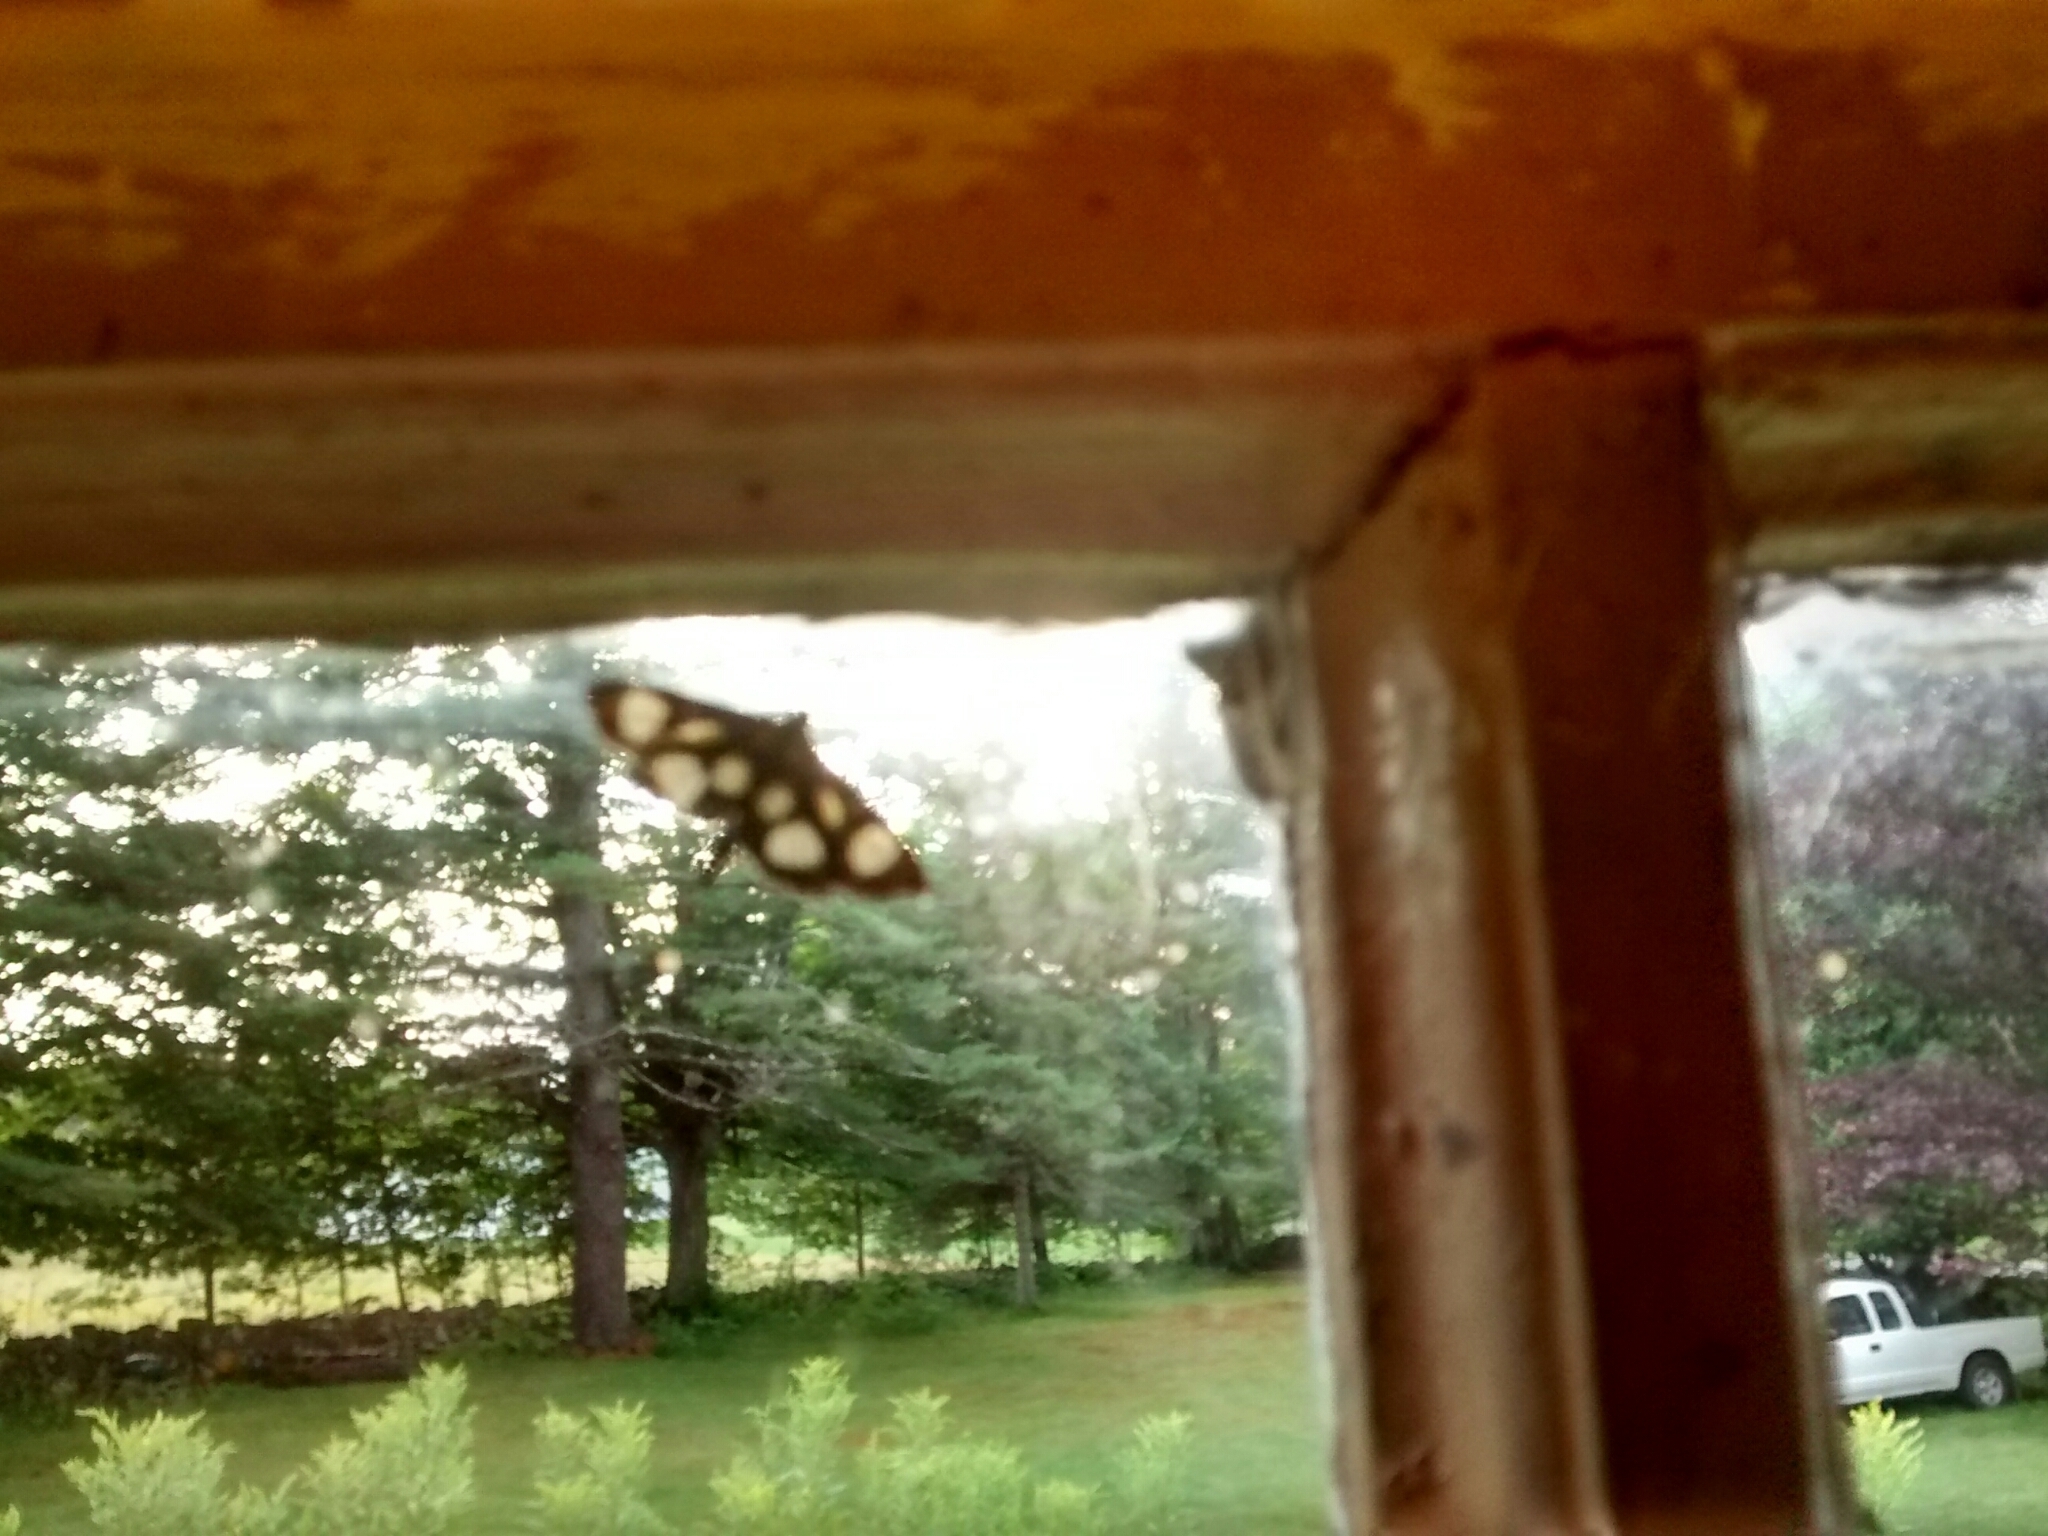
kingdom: Animalia
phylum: Arthropoda
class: Insecta
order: Lepidoptera
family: Crambidae
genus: Anania
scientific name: Anania funebris
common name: White-spotted sable moth
